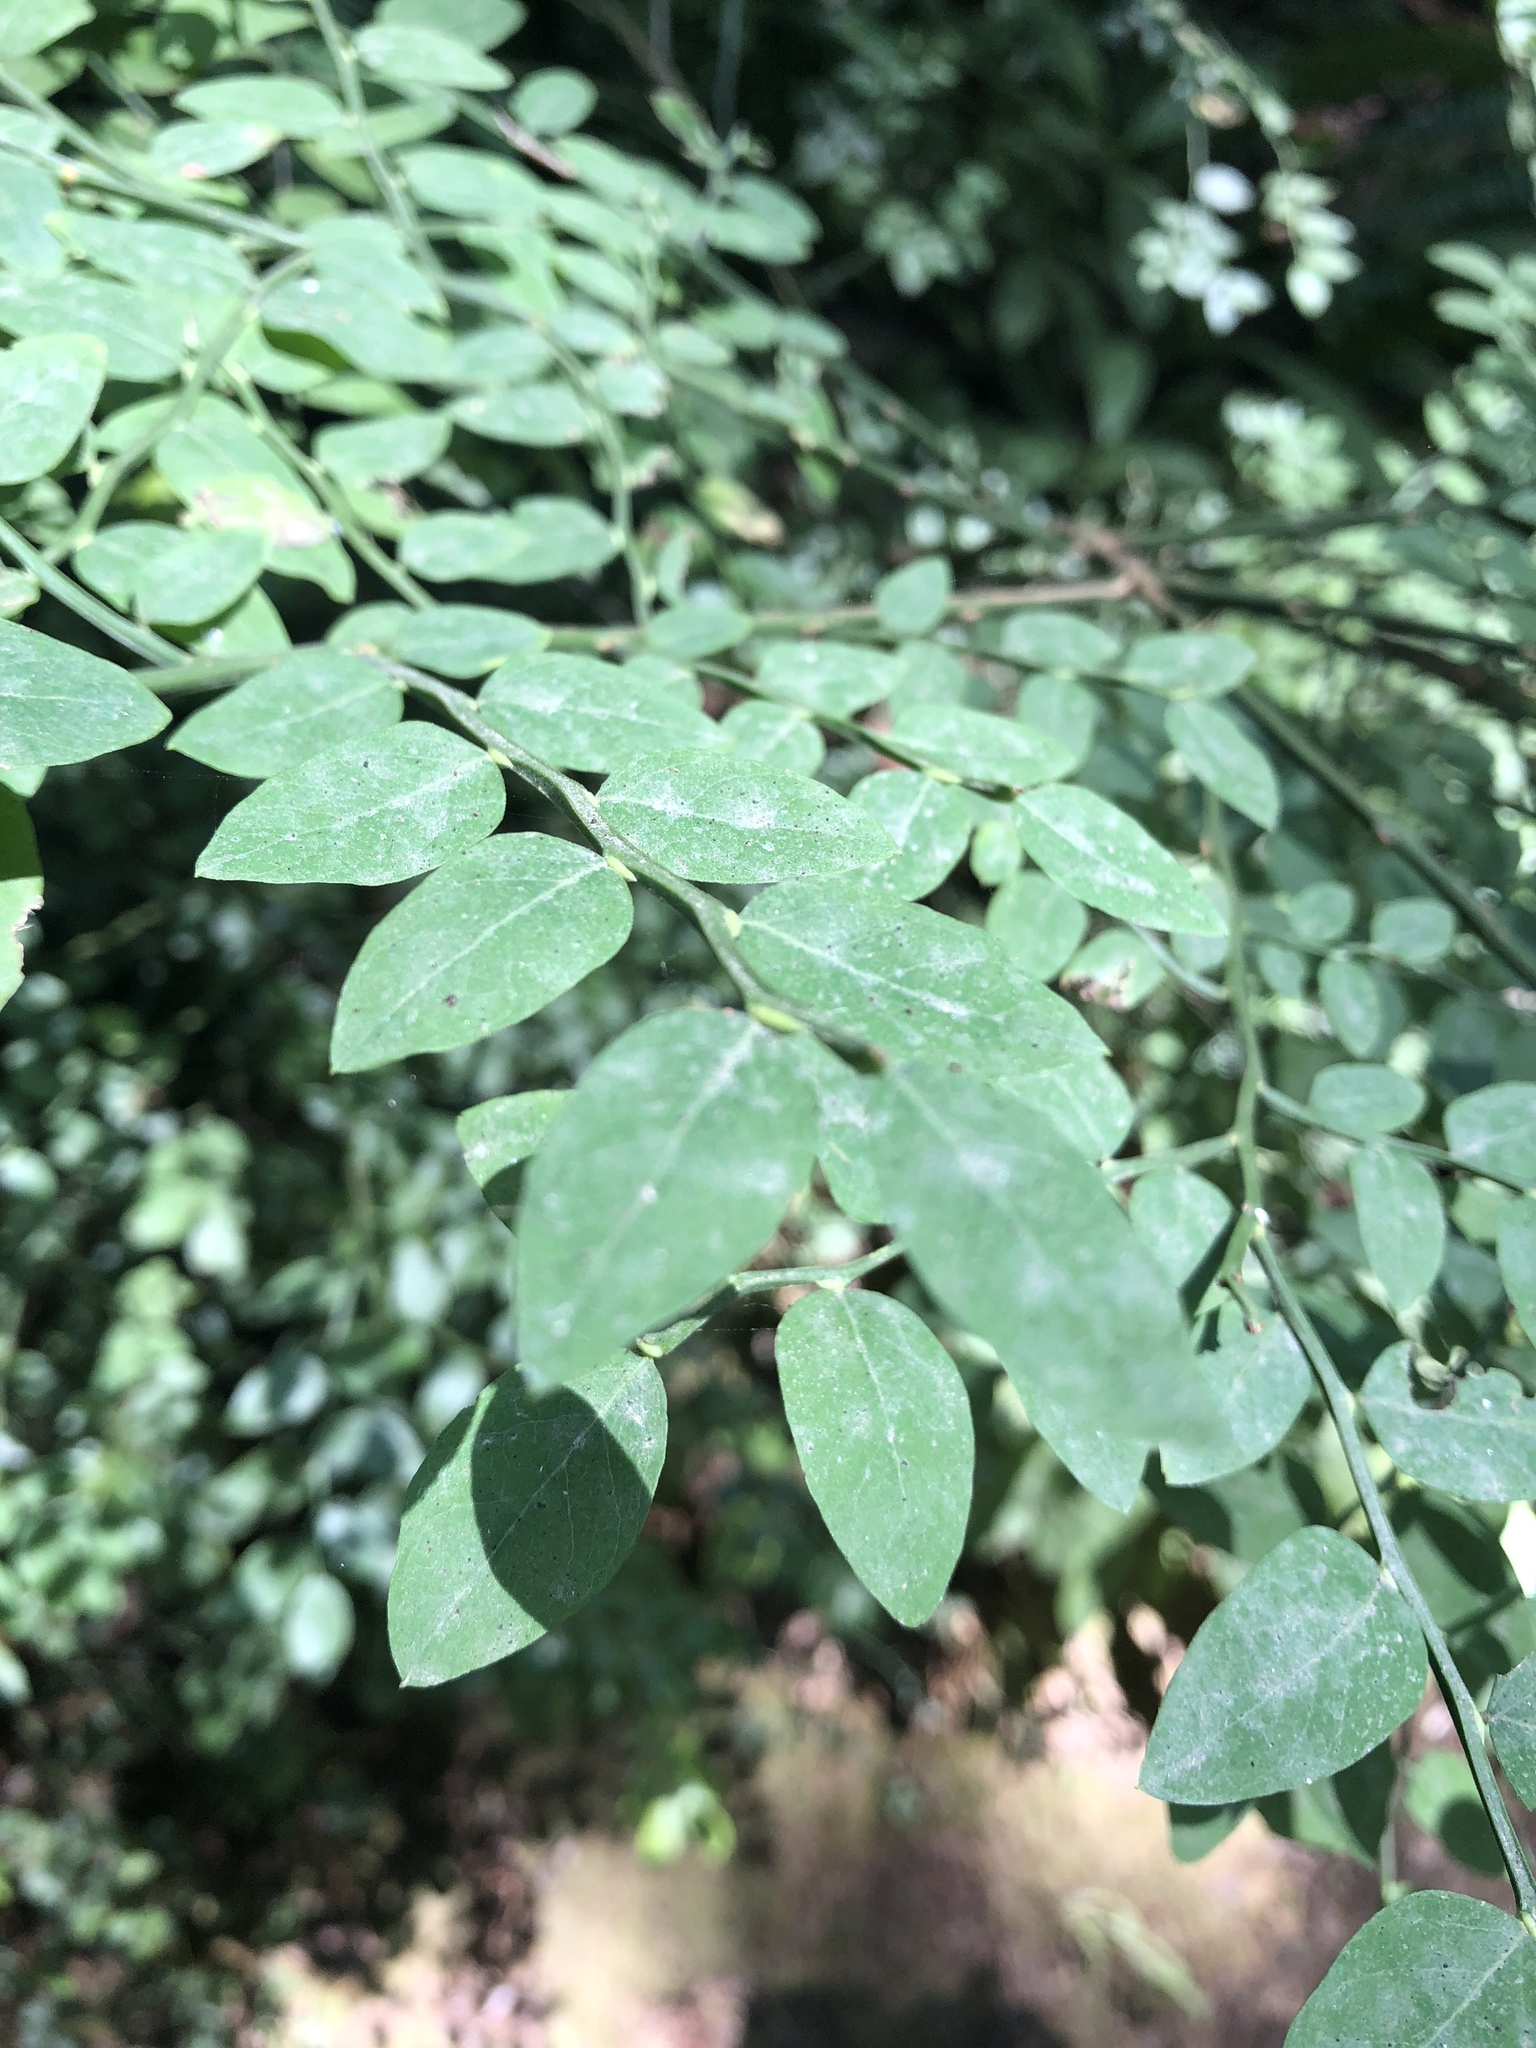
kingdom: Plantae
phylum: Tracheophyta
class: Magnoliopsida
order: Ericales
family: Ericaceae
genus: Vaccinium
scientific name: Vaccinium parvifolium
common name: Red-huckleberry
